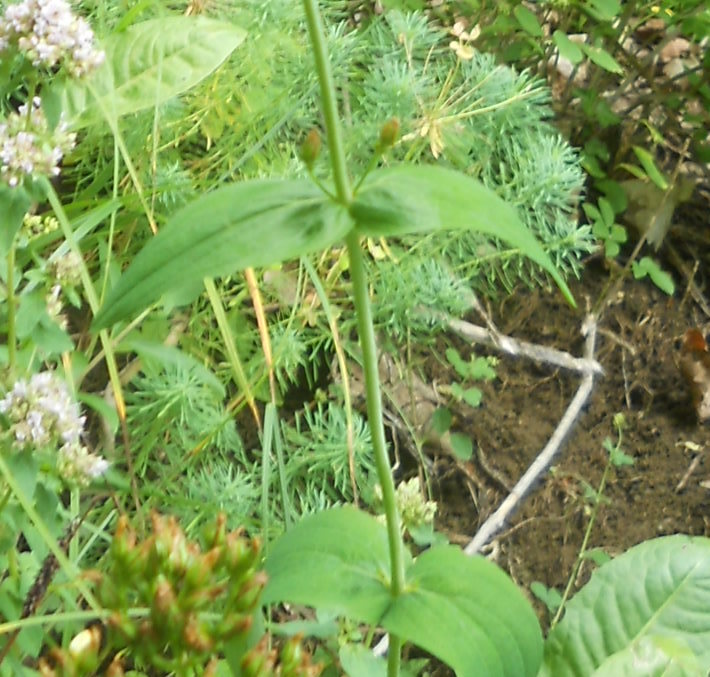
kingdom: Plantae
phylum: Tracheophyta
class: Magnoliopsida
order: Malpighiales
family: Hypericaceae
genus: Hypericum
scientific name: Hypericum montanum
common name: Pale st. john's-wort
